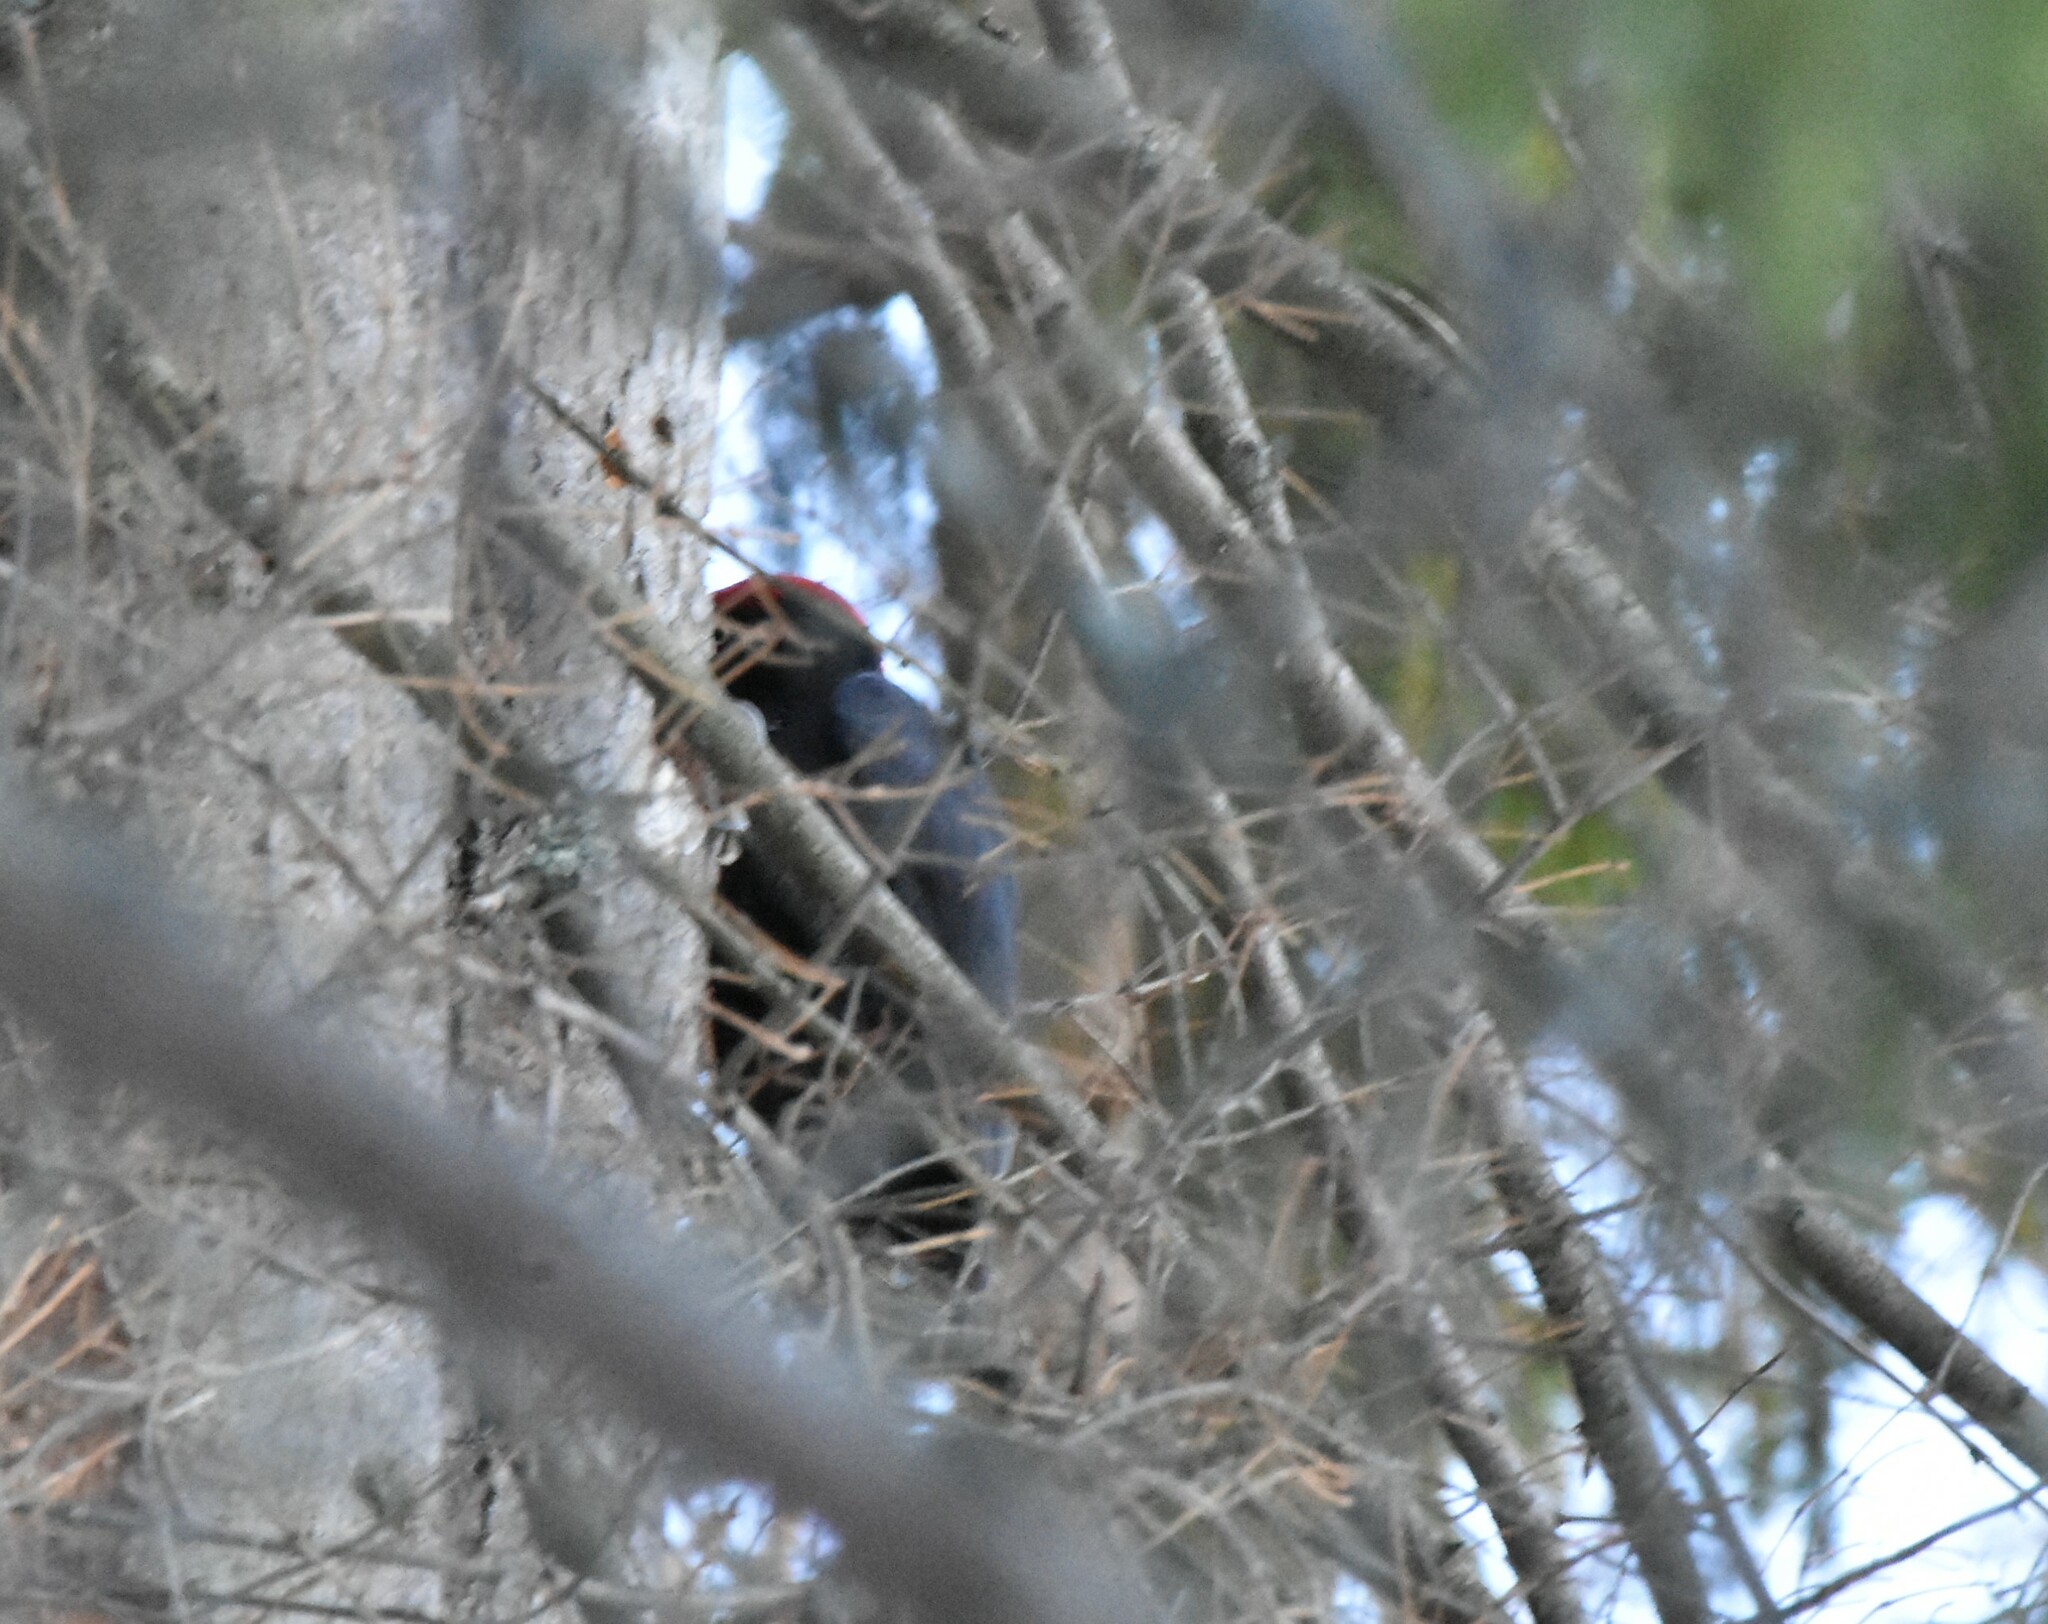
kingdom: Animalia
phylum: Chordata
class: Aves
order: Piciformes
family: Picidae
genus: Dryocopus
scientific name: Dryocopus martius
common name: Black woodpecker
